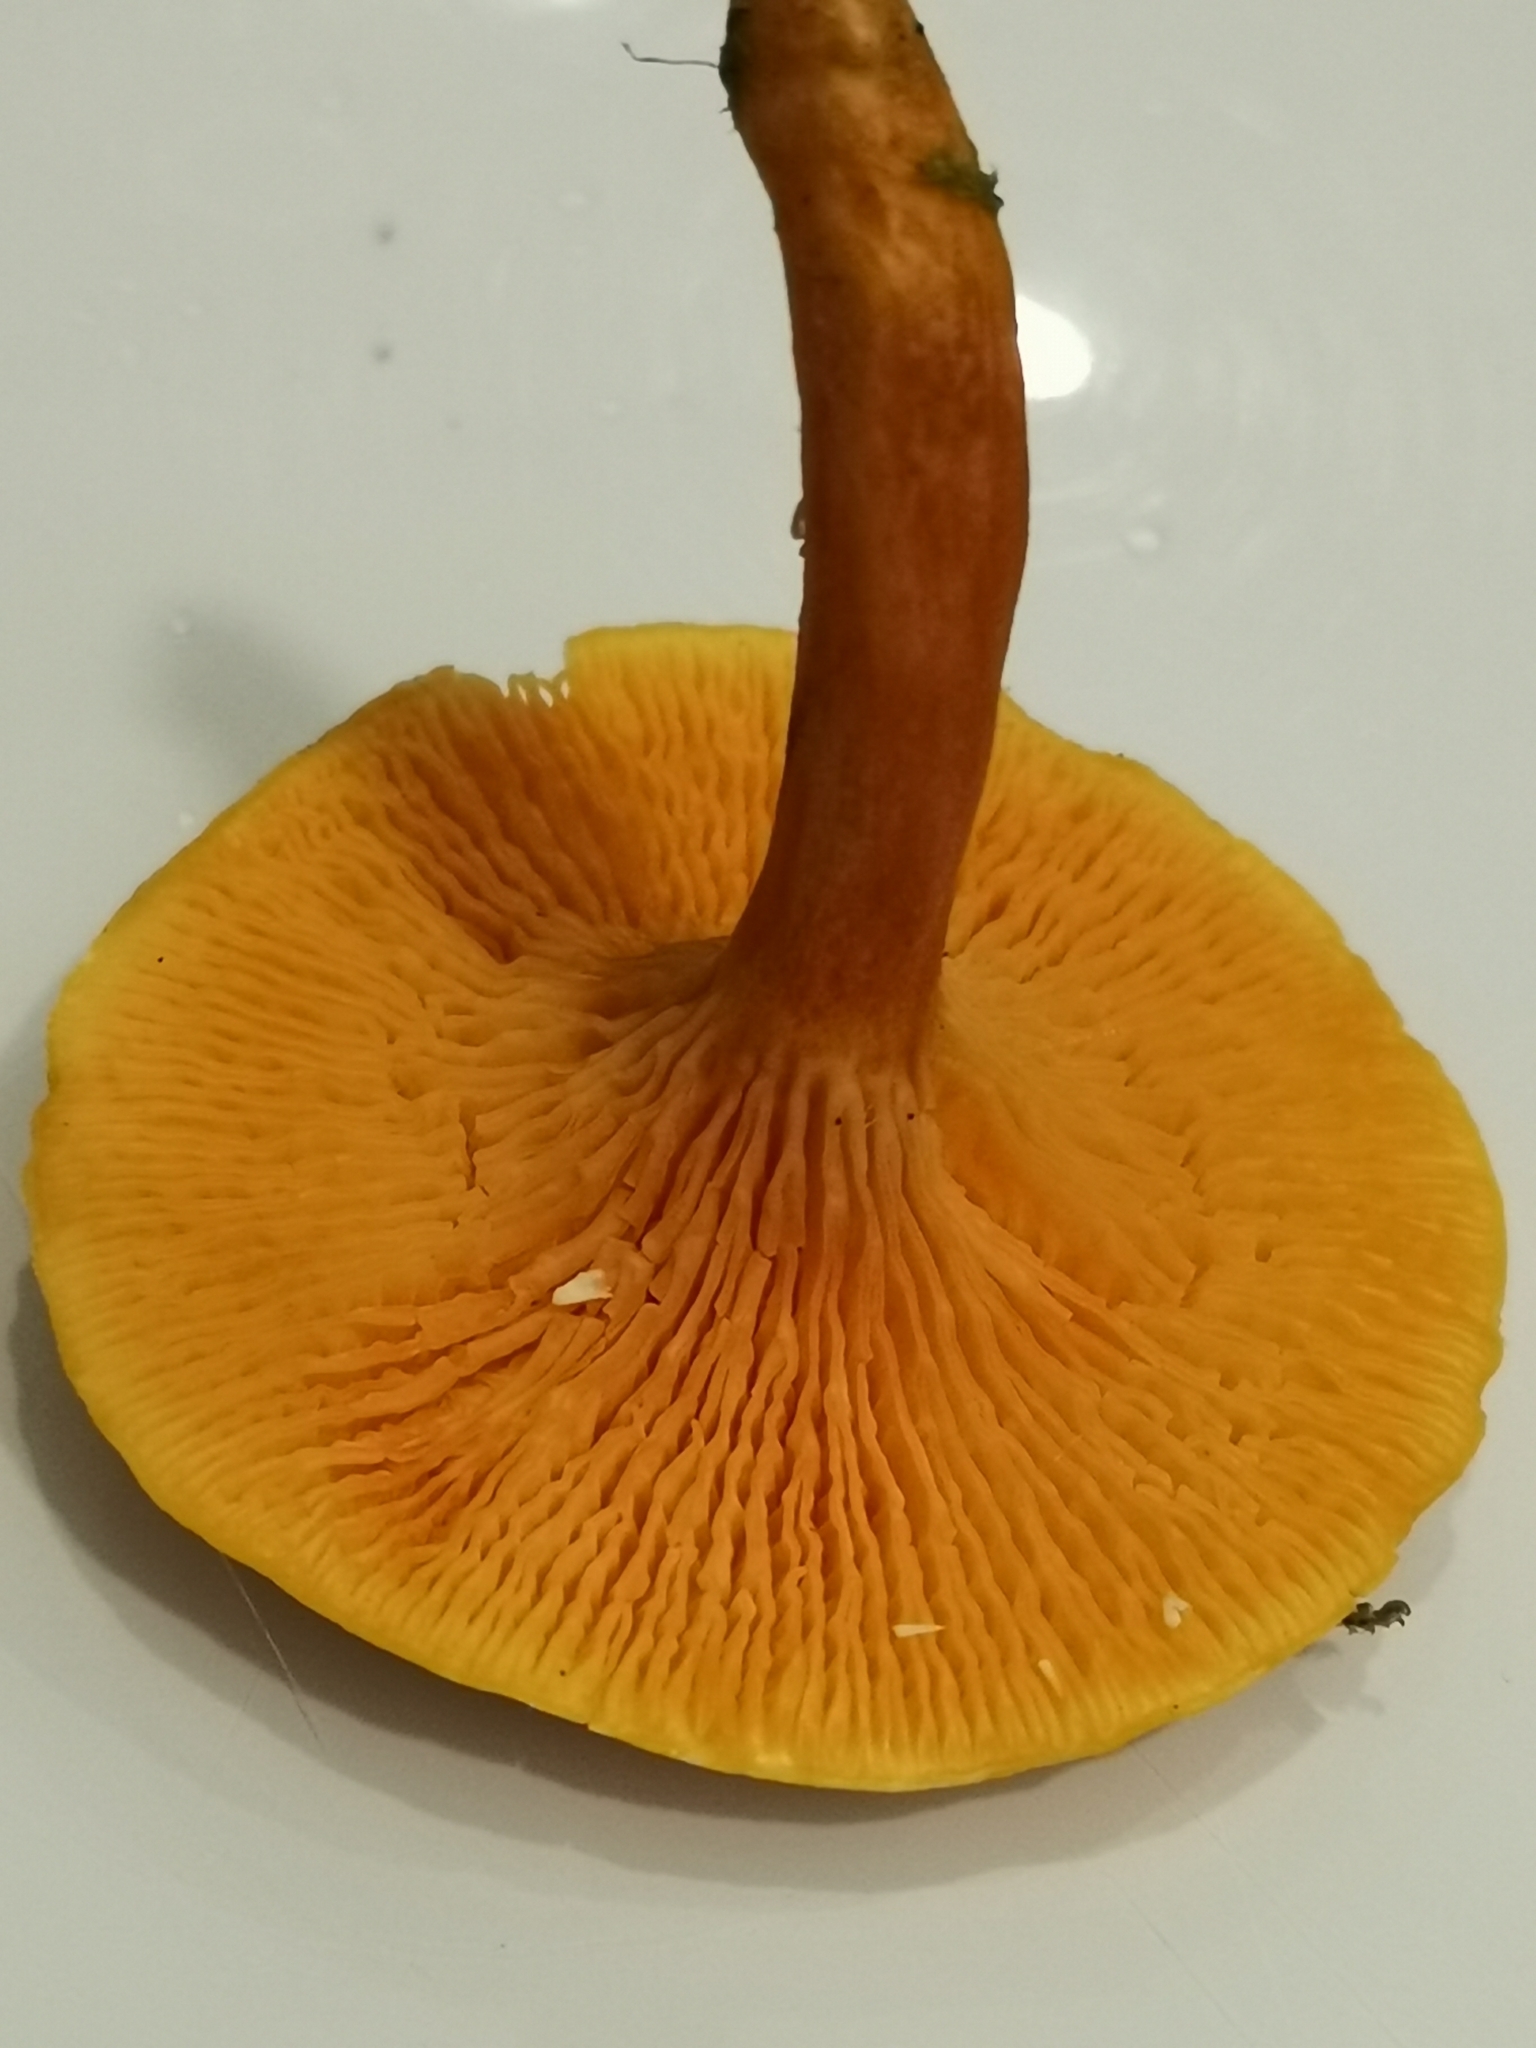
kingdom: Fungi
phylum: Basidiomycota
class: Agaricomycetes
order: Boletales
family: Hygrophoropsidaceae
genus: Hygrophoropsis
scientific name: Hygrophoropsis aurantiaca
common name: False chanterelle
